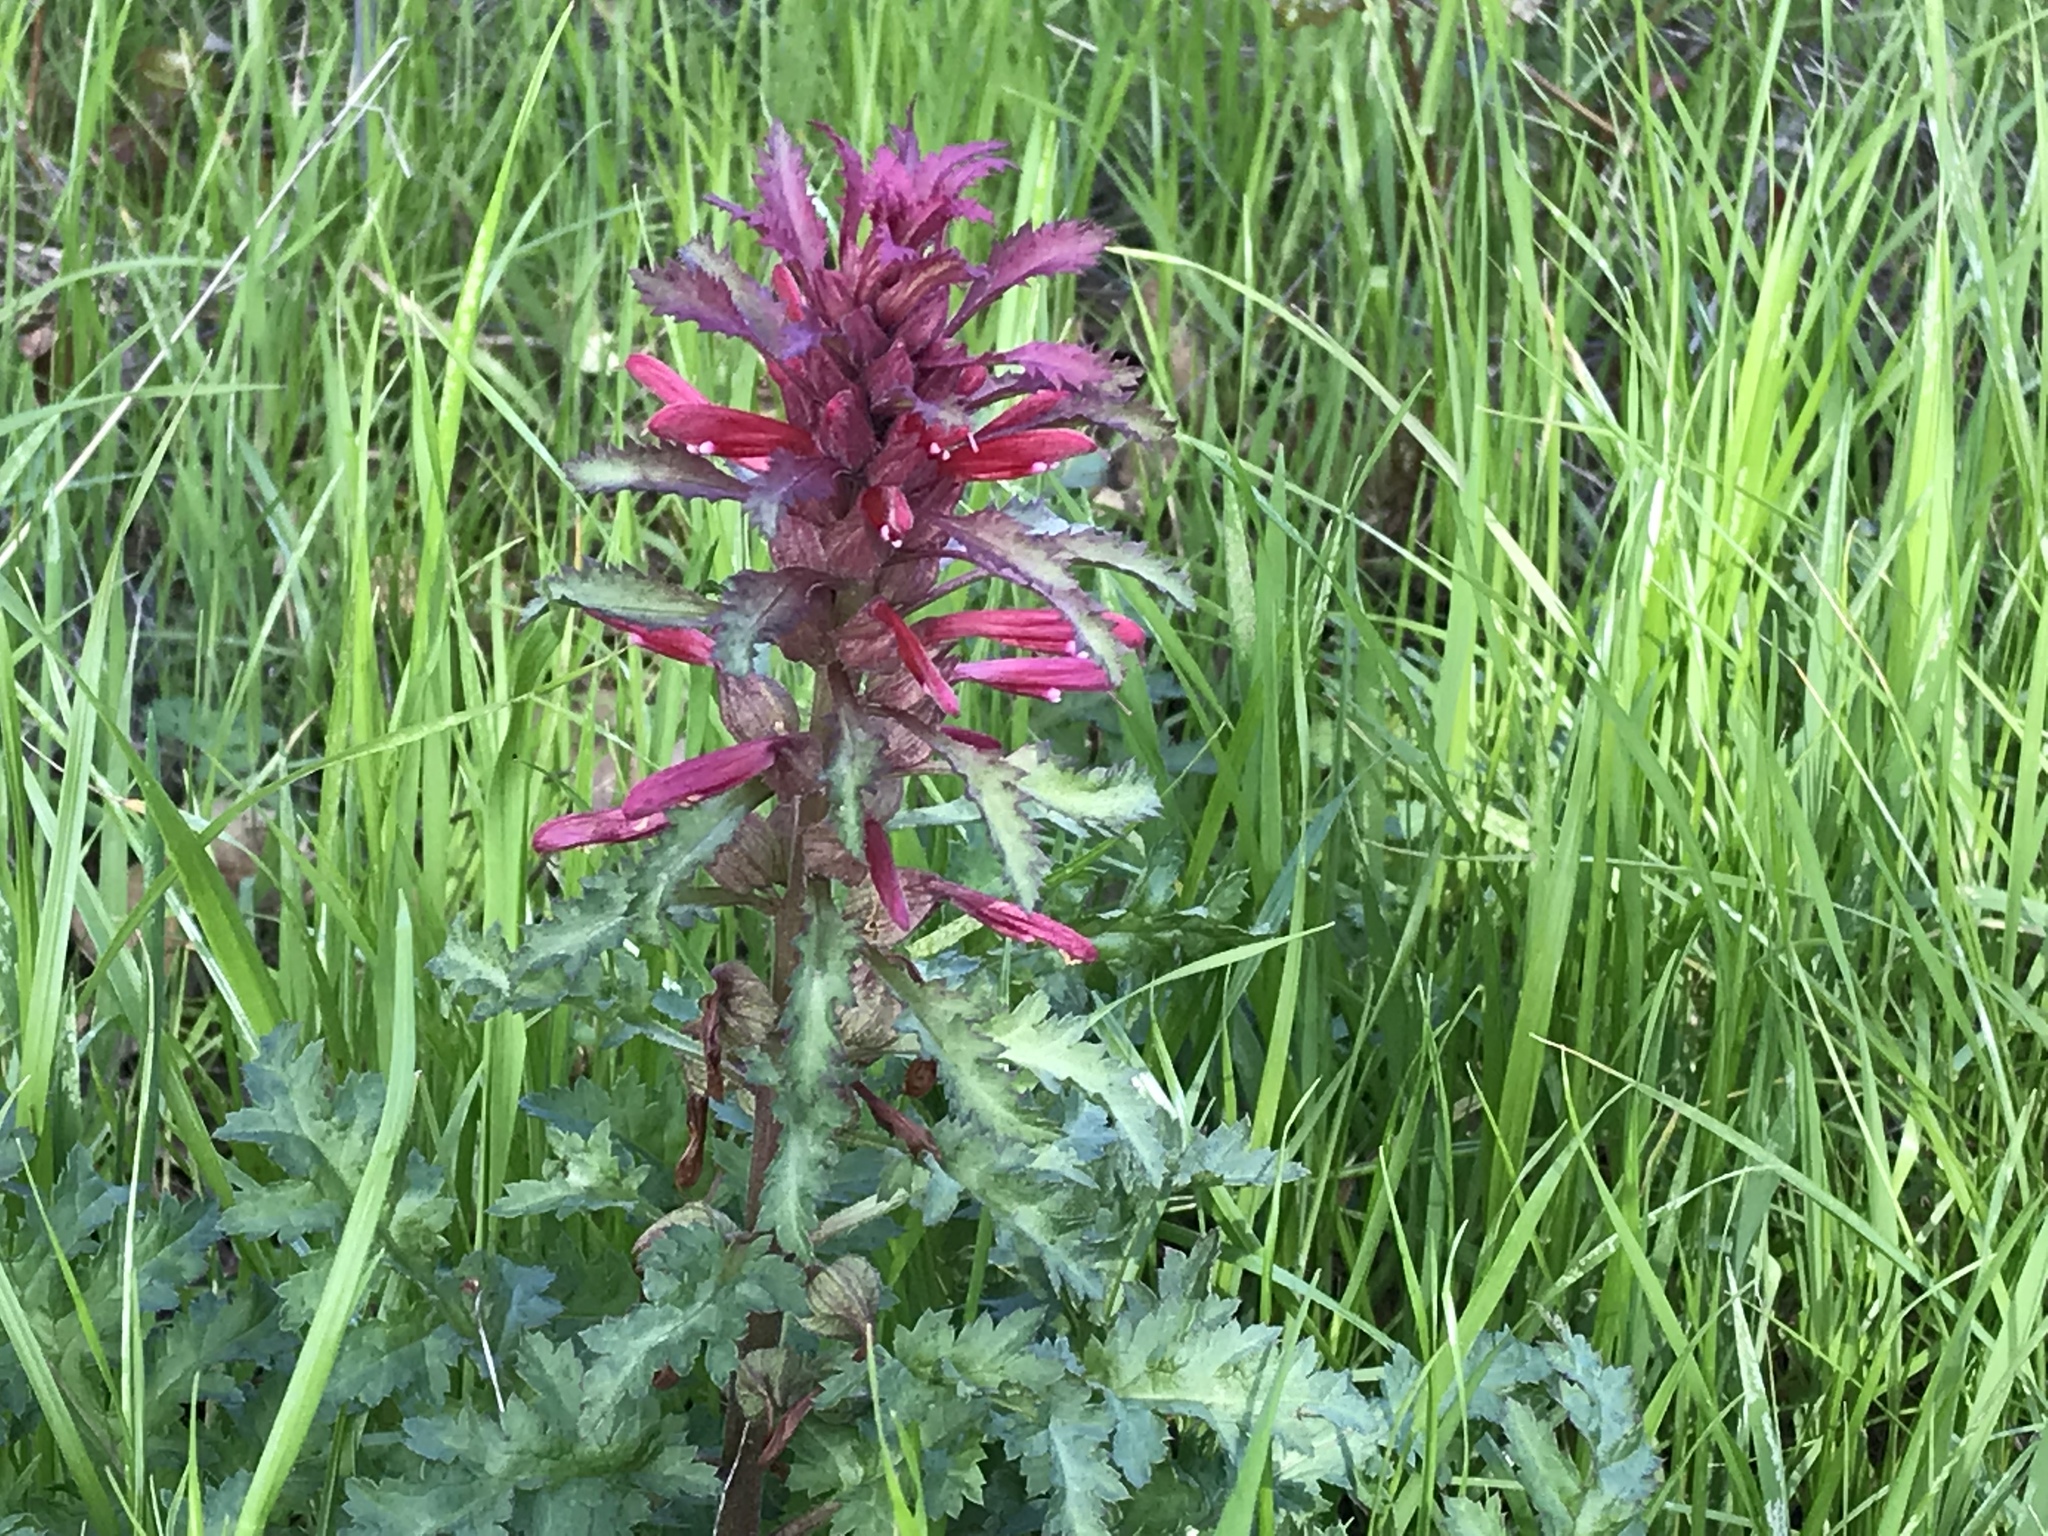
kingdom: Plantae
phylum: Tracheophyta
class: Magnoliopsida
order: Lamiales
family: Orobanchaceae
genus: Pedicularis
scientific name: Pedicularis densiflora
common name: Indian warrior
